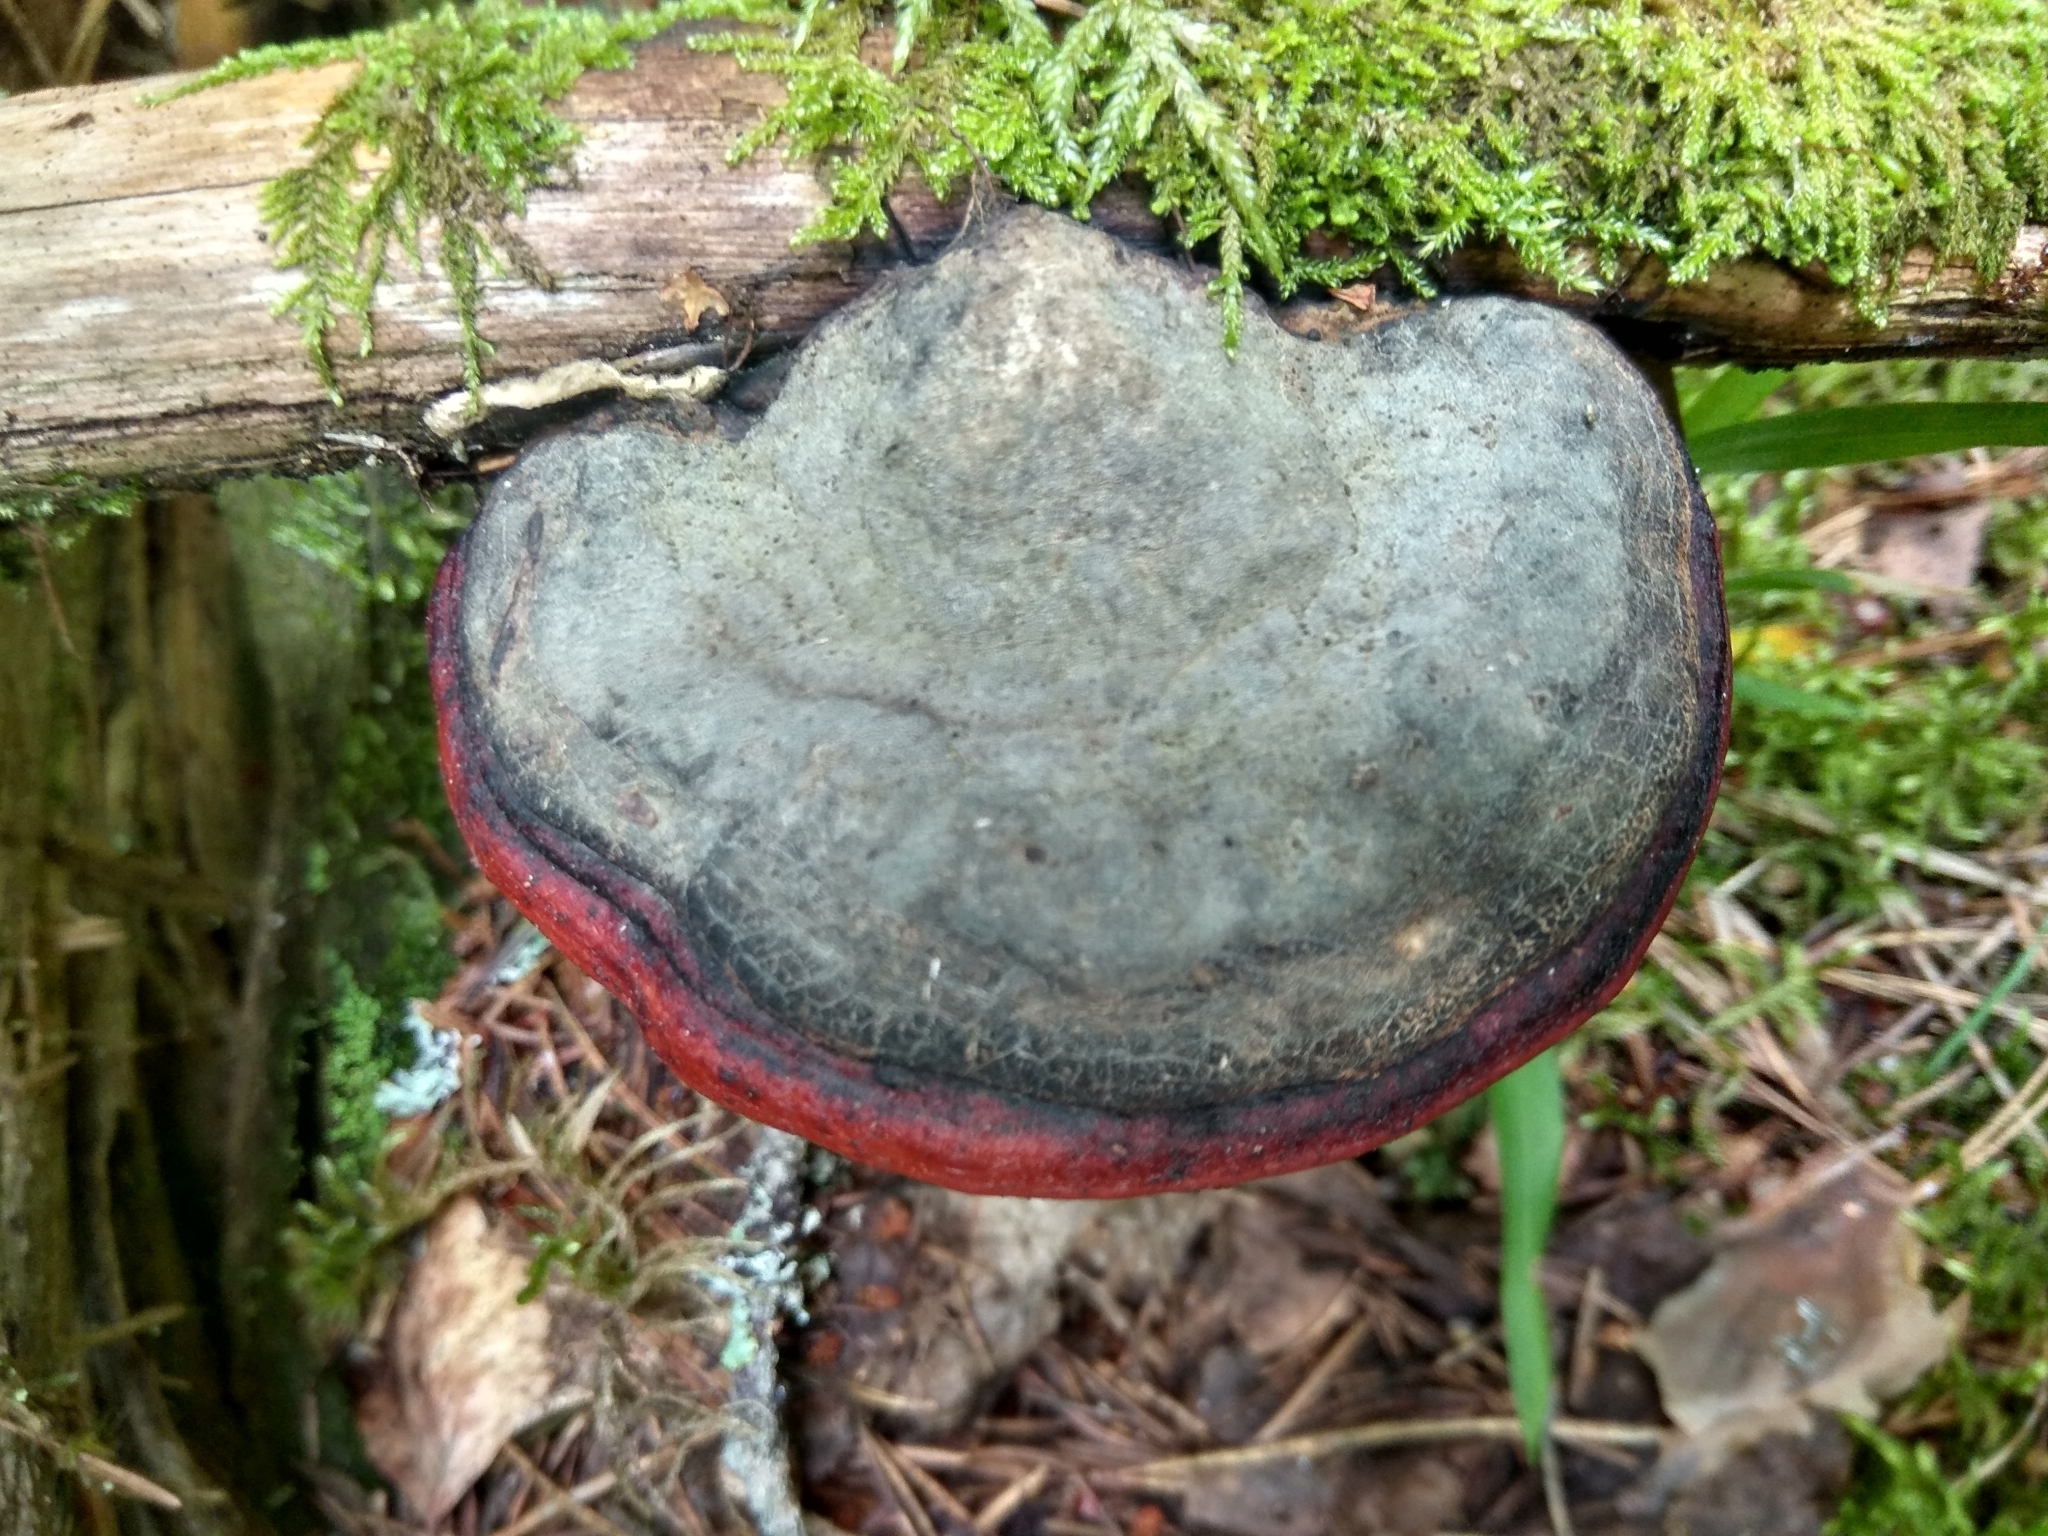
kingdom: Fungi
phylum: Basidiomycota
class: Agaricomycetes
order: Polyporales
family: Fomitopsidaceae
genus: Fomitopsis
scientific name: Fomitopsis pinicola
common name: Red-belted bracket
